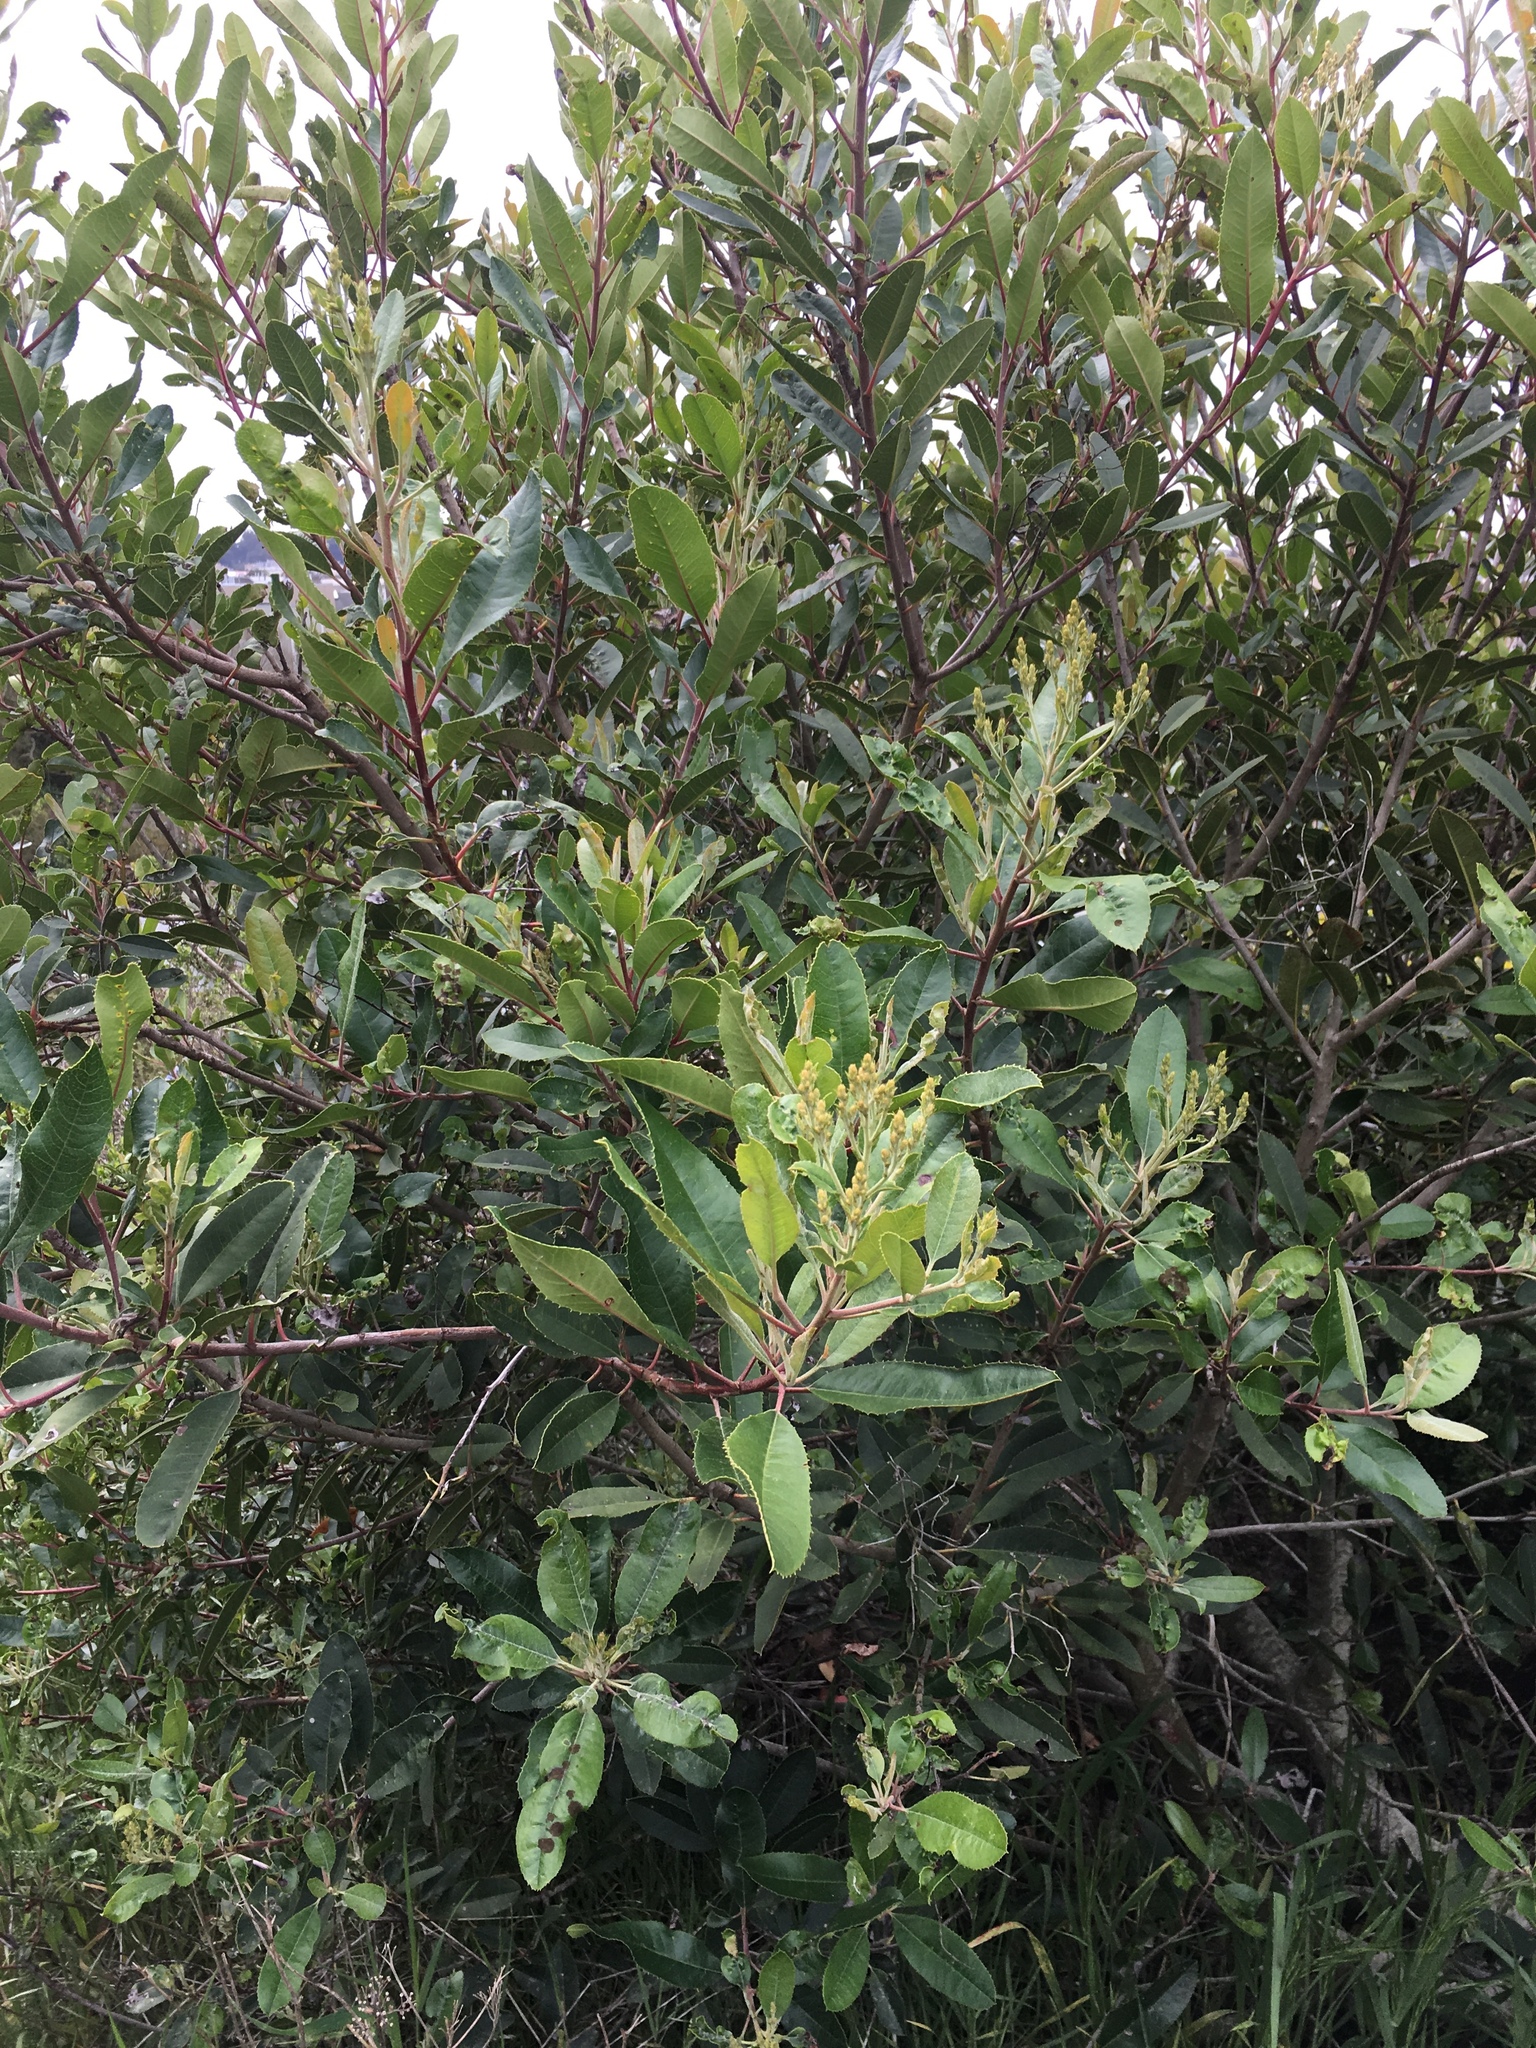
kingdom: Plantae
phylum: Tracheophyta
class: Magnoliopsida
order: Rosales
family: Rosaceae
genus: Heteromeles
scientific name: Heteromeles arbutifolia
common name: California-holly
